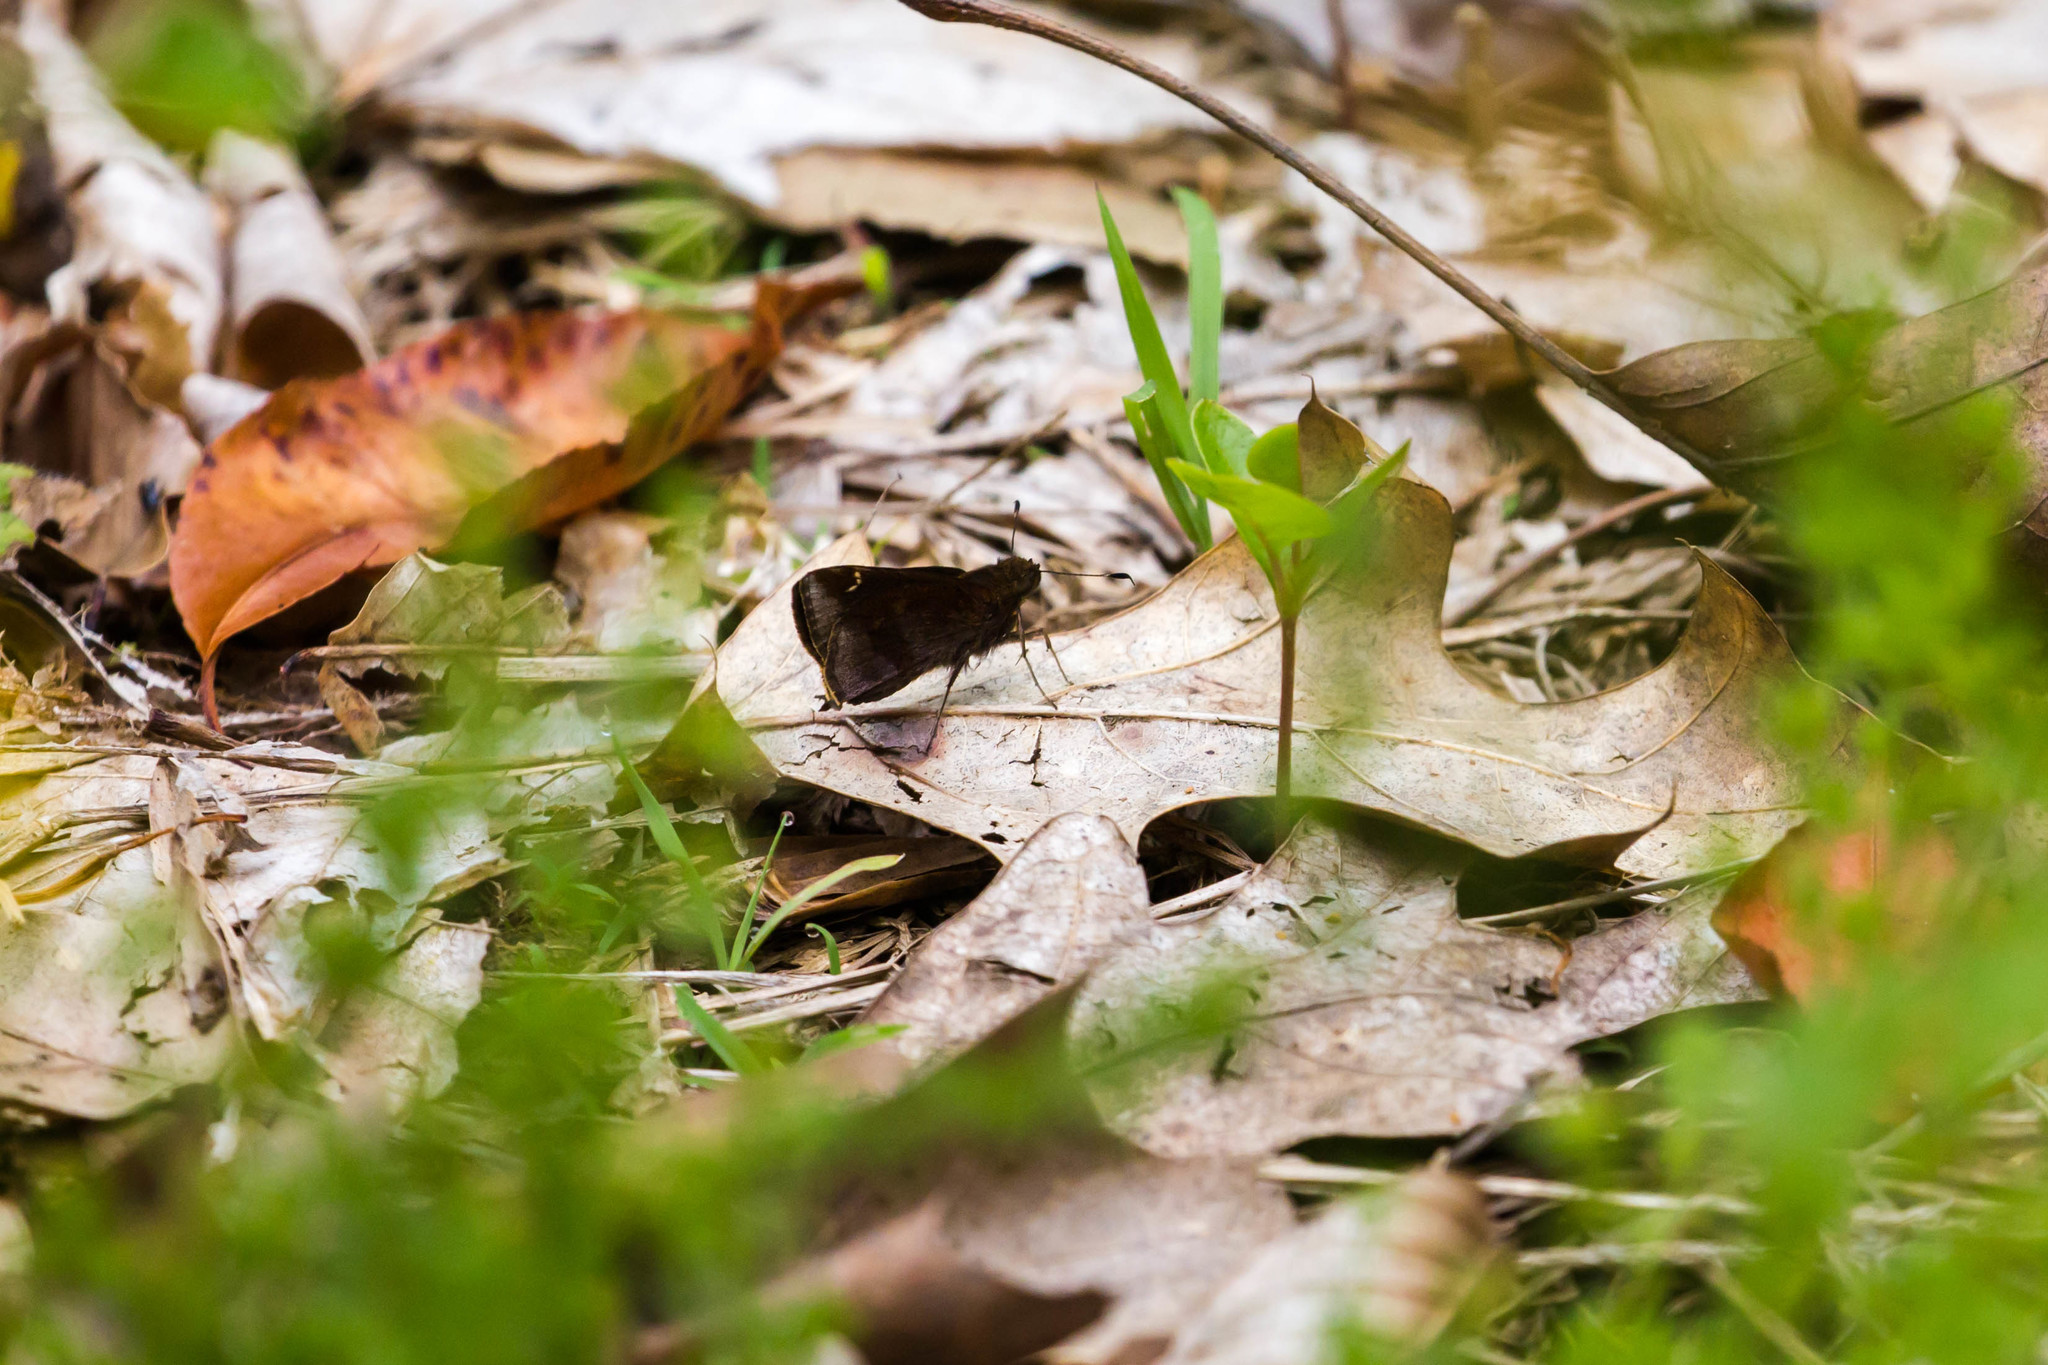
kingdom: Animalia
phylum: Arthropoda
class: Insecta
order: Lepidoptera
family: Hesperiidae
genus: Lerema
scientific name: Lerema accius
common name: Clouded skipper
